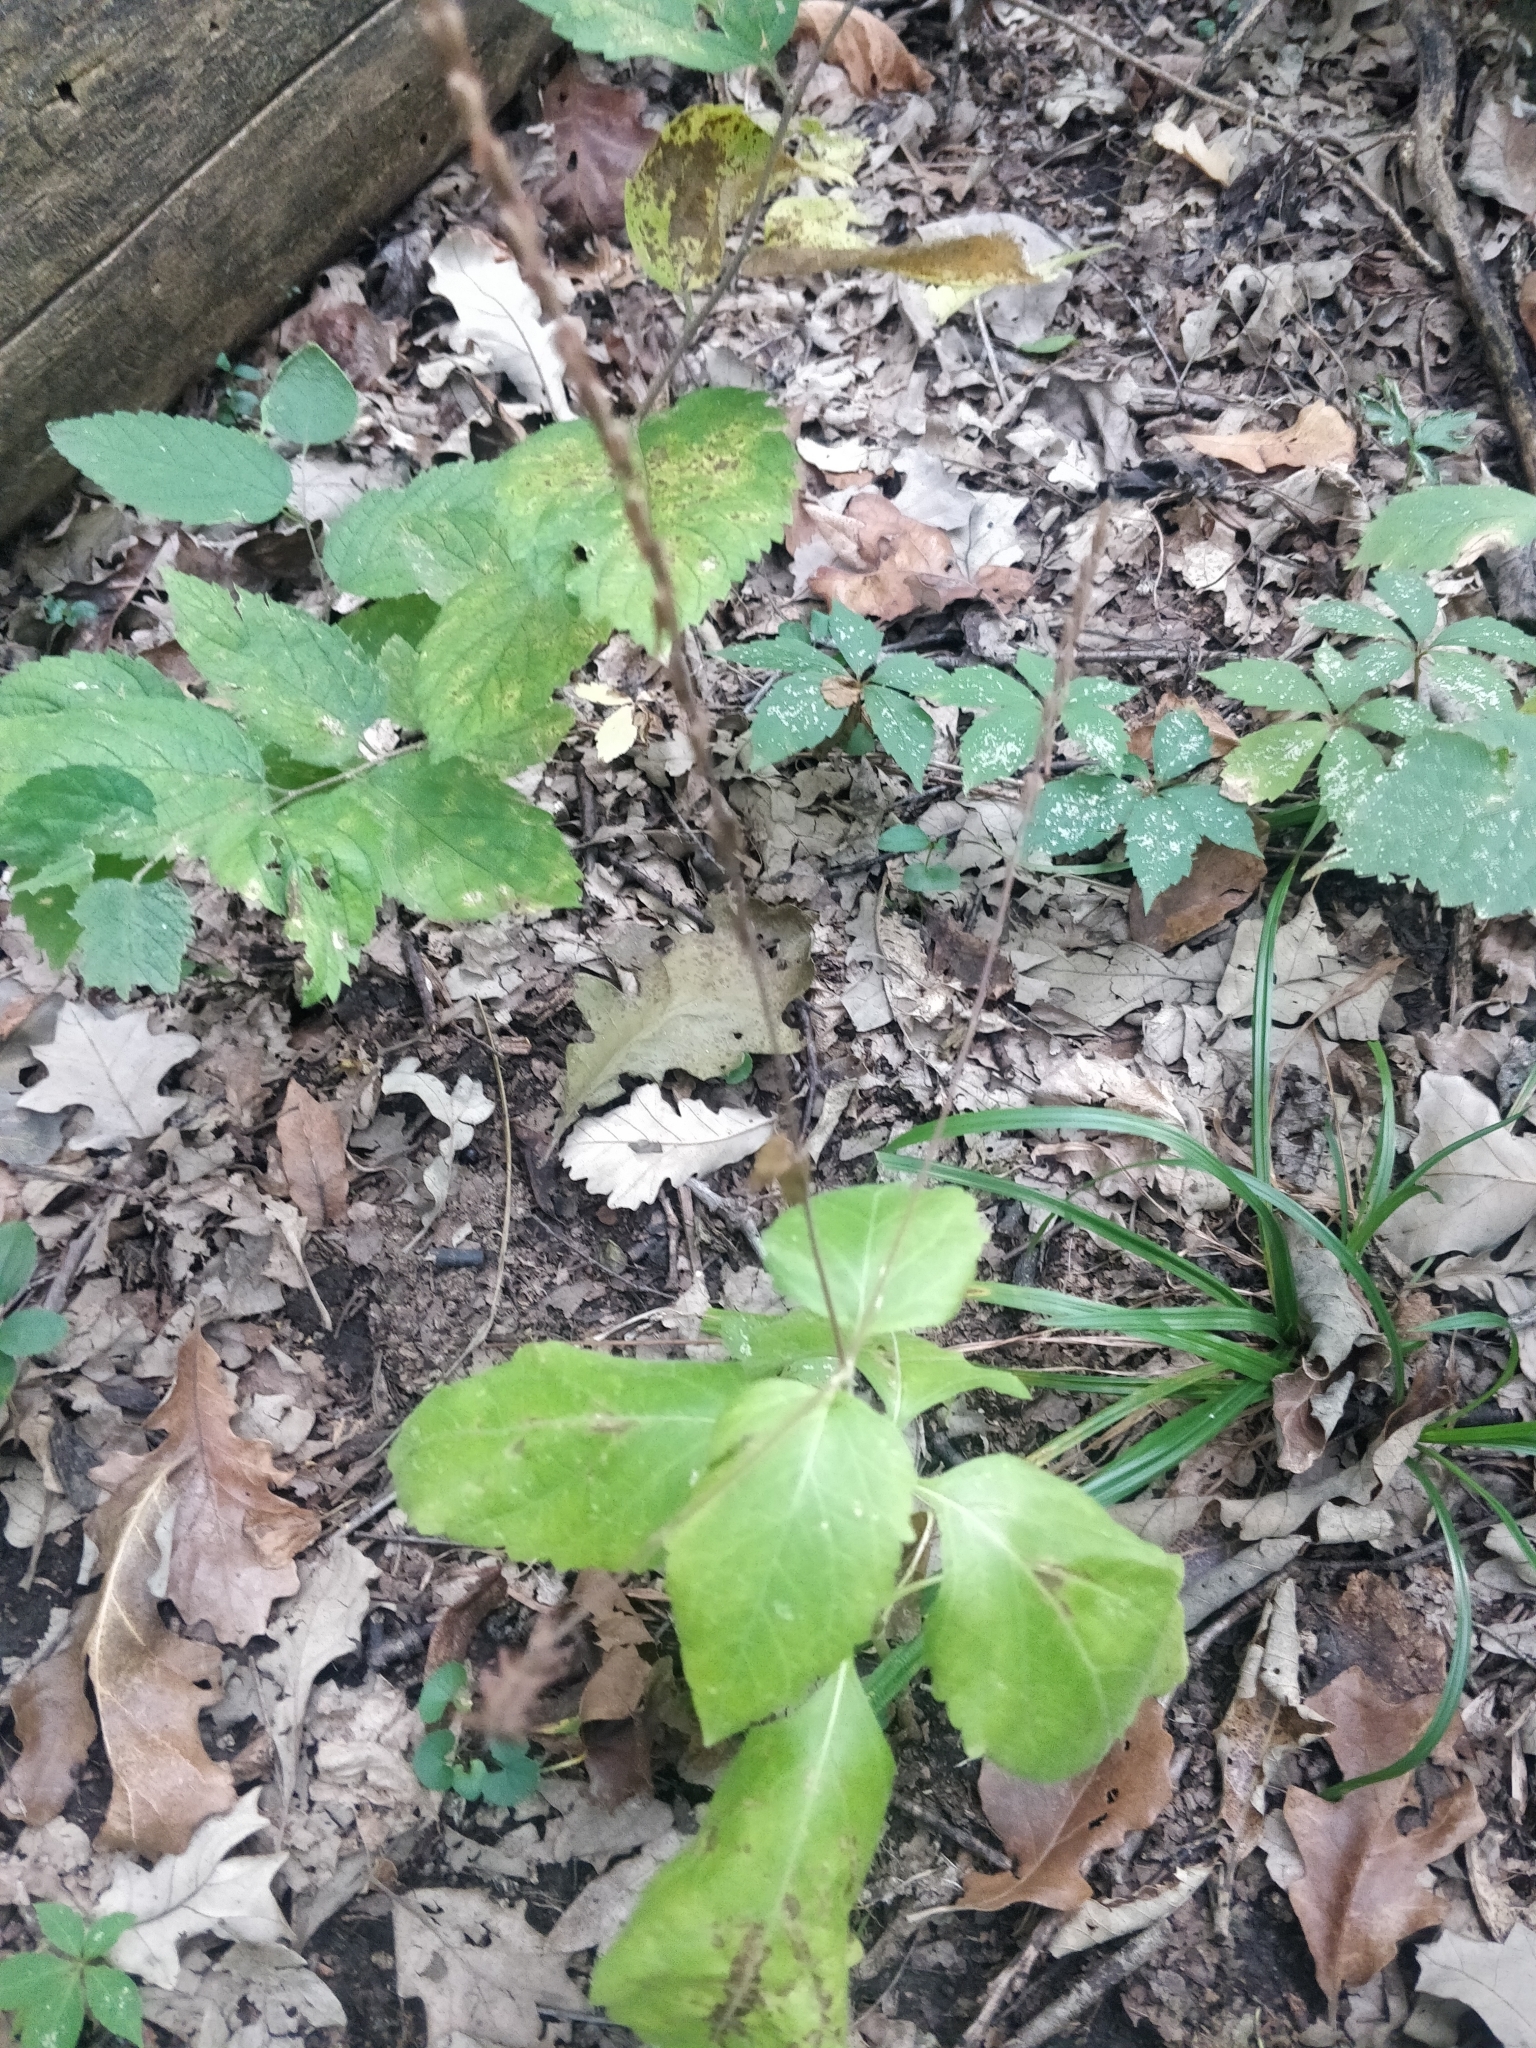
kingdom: Plantae
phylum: Tracheophyta
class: Magnoliopsida
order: Lamiales
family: Phrymaceae
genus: Phryma
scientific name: Phryma leptostachya
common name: American lopseed
